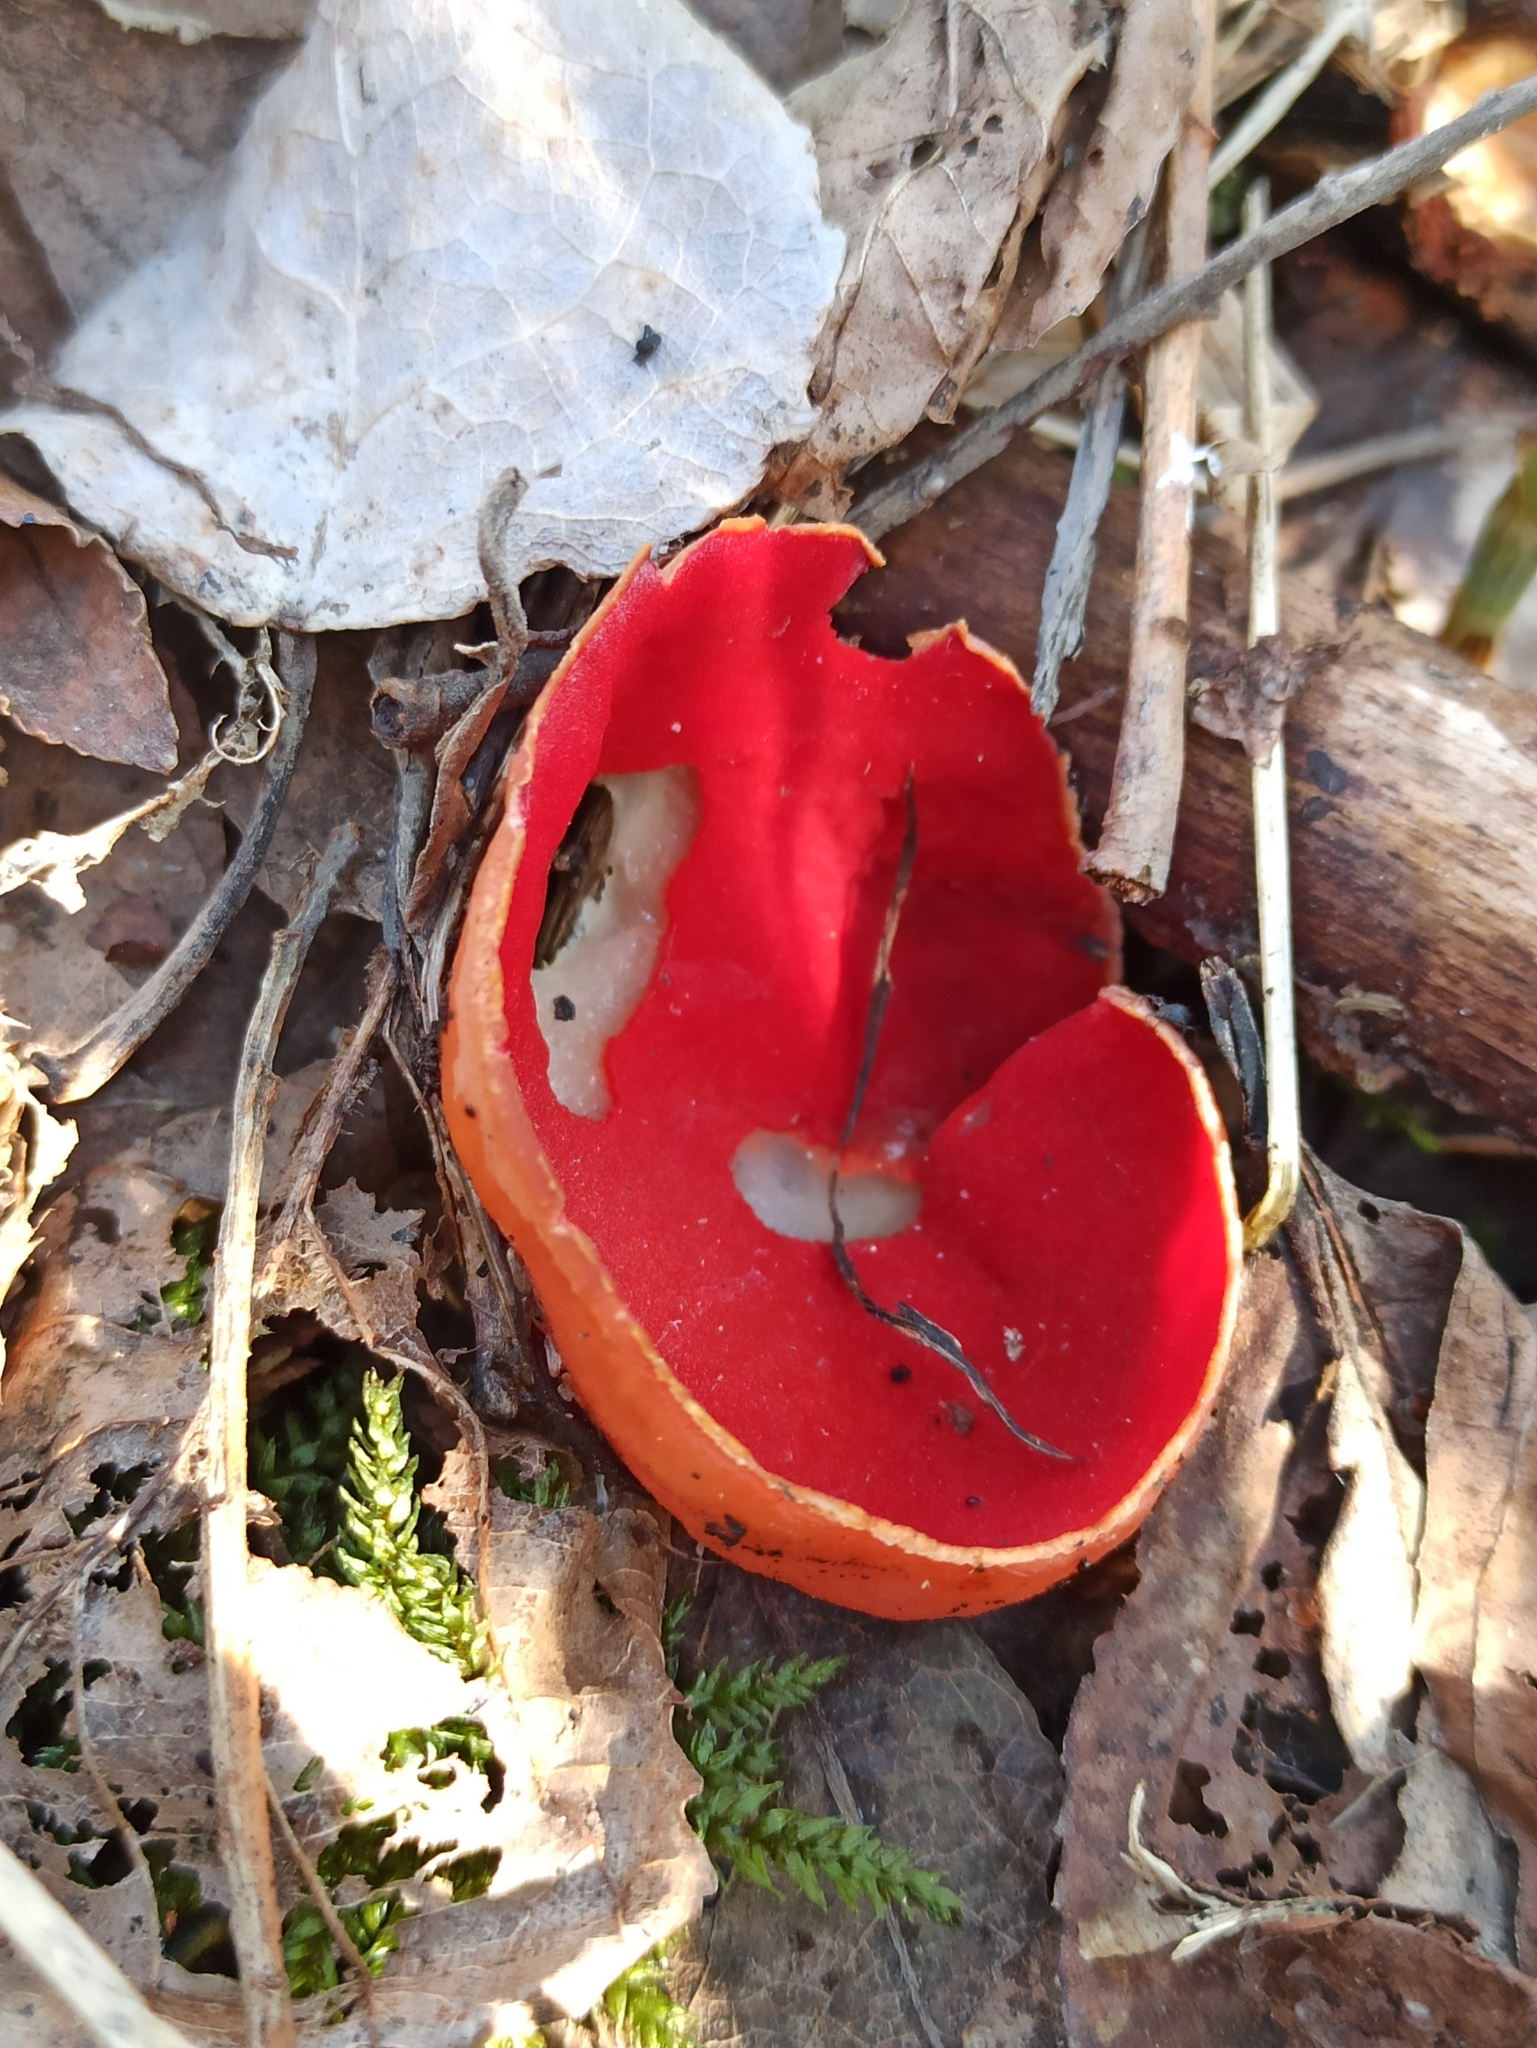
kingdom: Fungi
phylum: Ascomycota
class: Pezizomycetes
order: Pezizales
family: Sarcoscyphaceae
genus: Sarcoscypha
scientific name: Sarcoscypha
